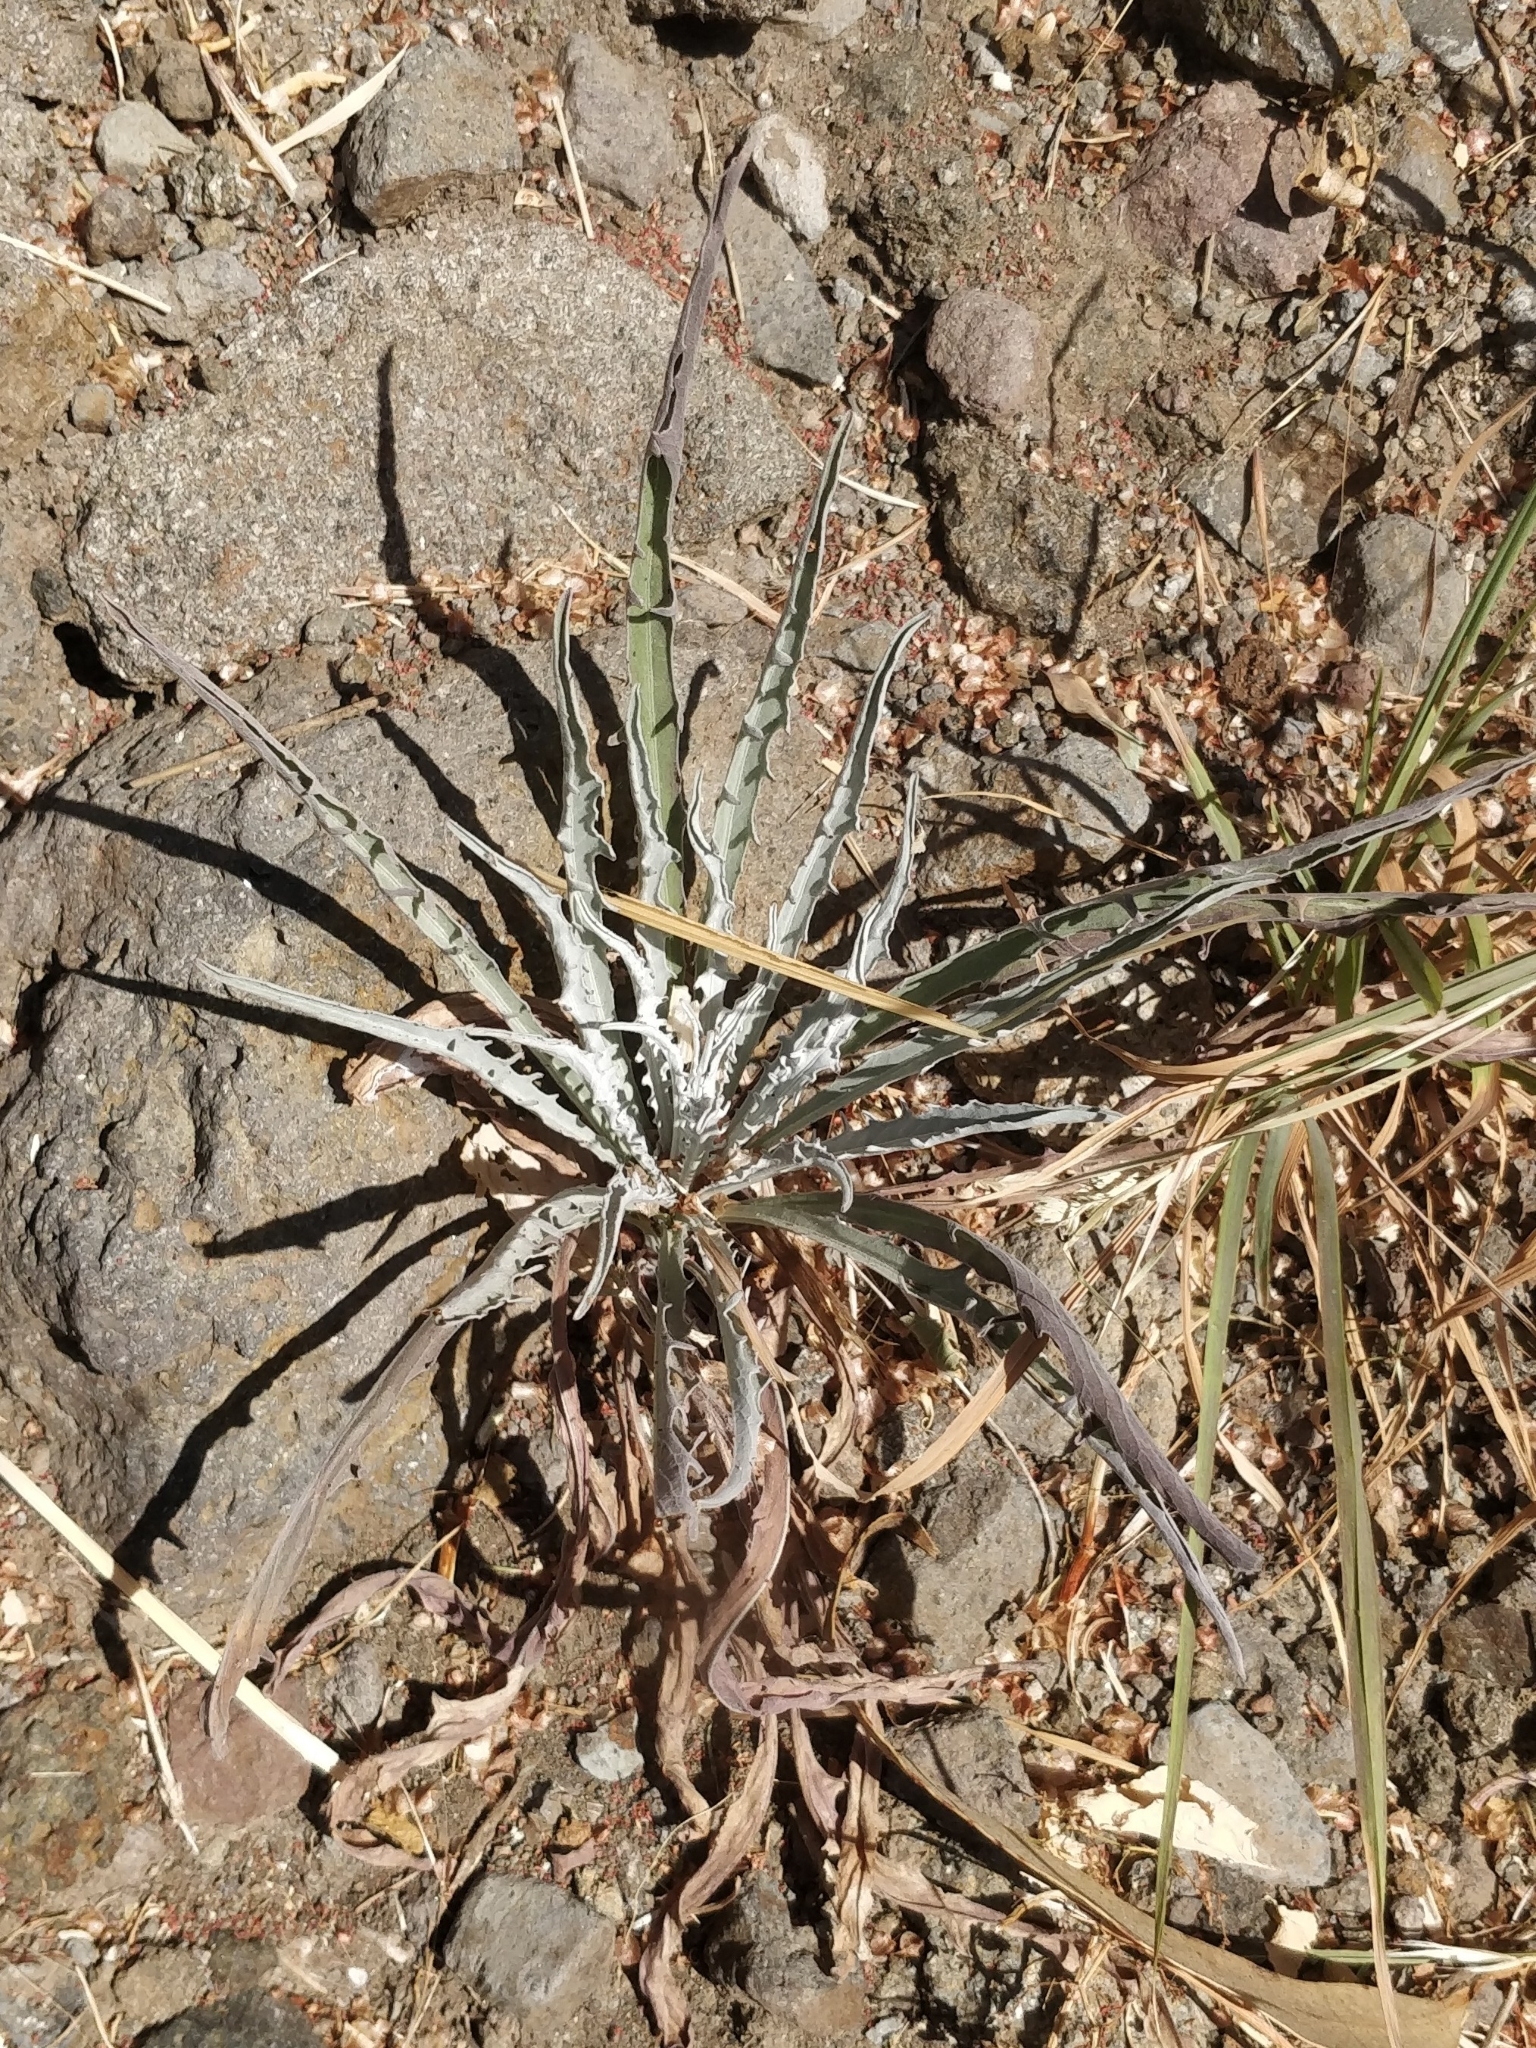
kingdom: Plantae
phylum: Tracheophyta
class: Magnoliopsida
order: Asterales
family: Asteraceae
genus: Andryala
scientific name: Andryala glandulosa
